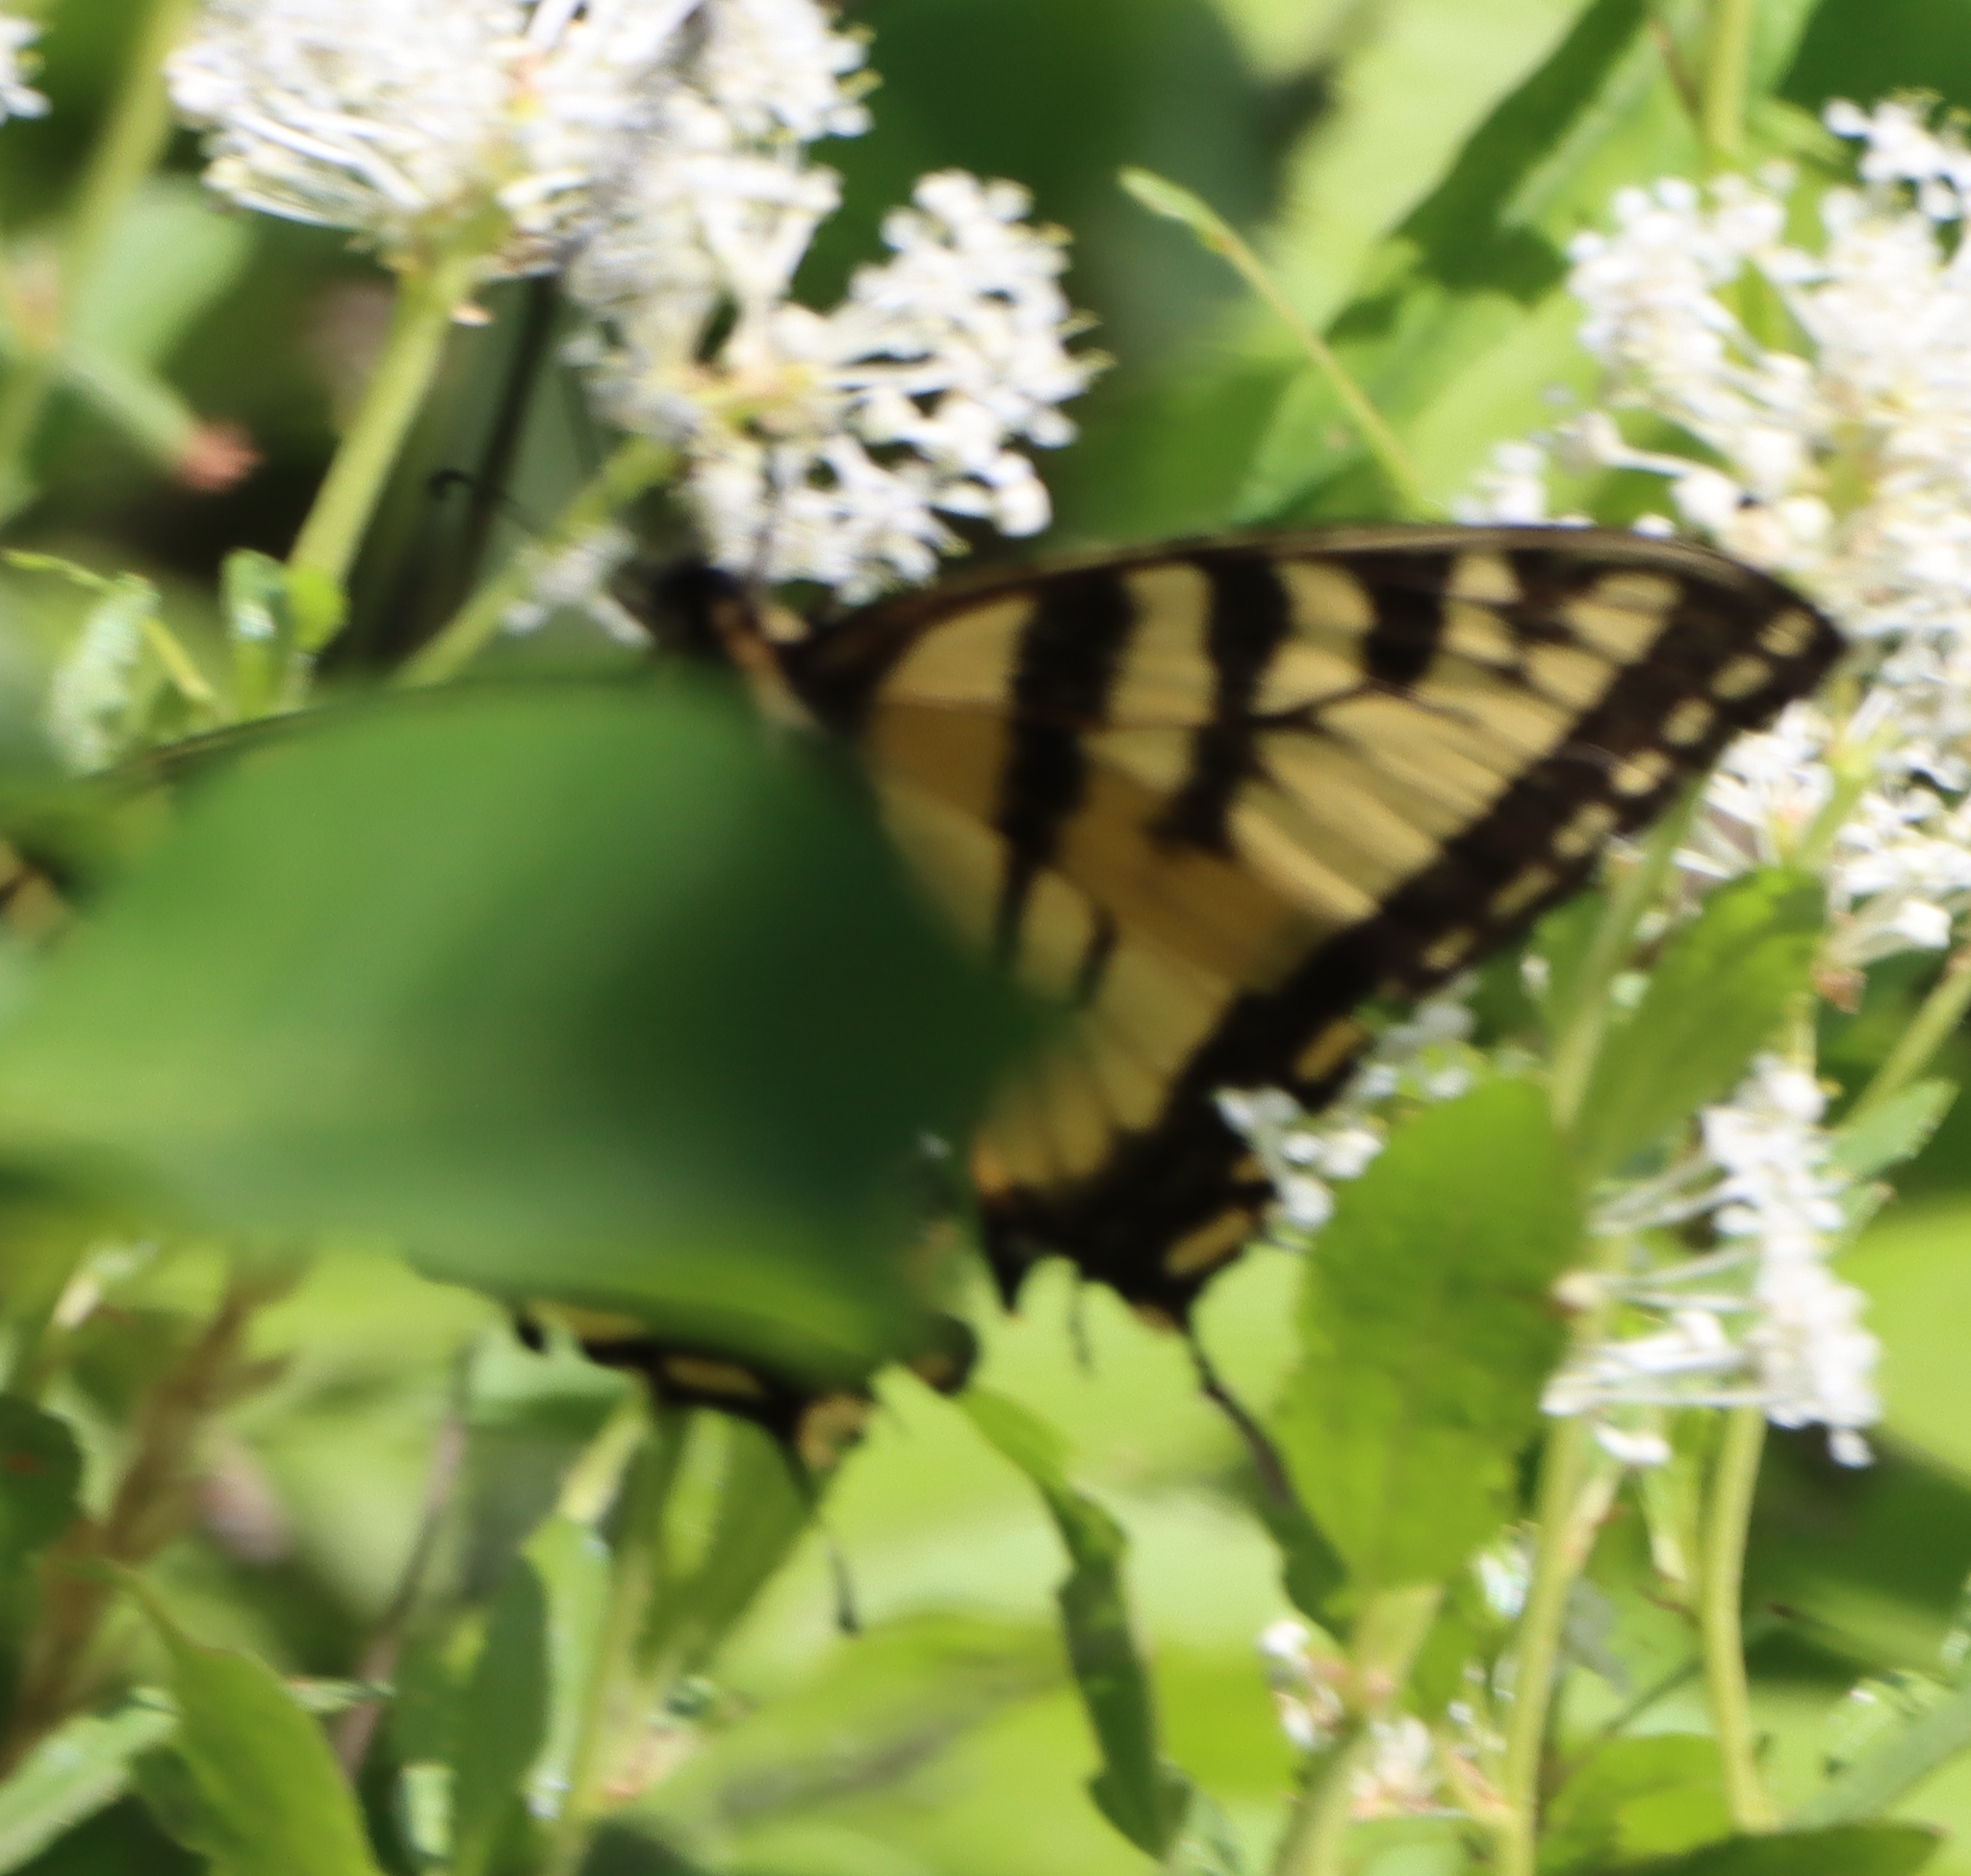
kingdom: Animalia
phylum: Arthropoda
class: Insecta
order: Lepidoptera
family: Papilionidae
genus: Papilio
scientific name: Papilio canadensis
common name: Canadian tiger swallowtail
